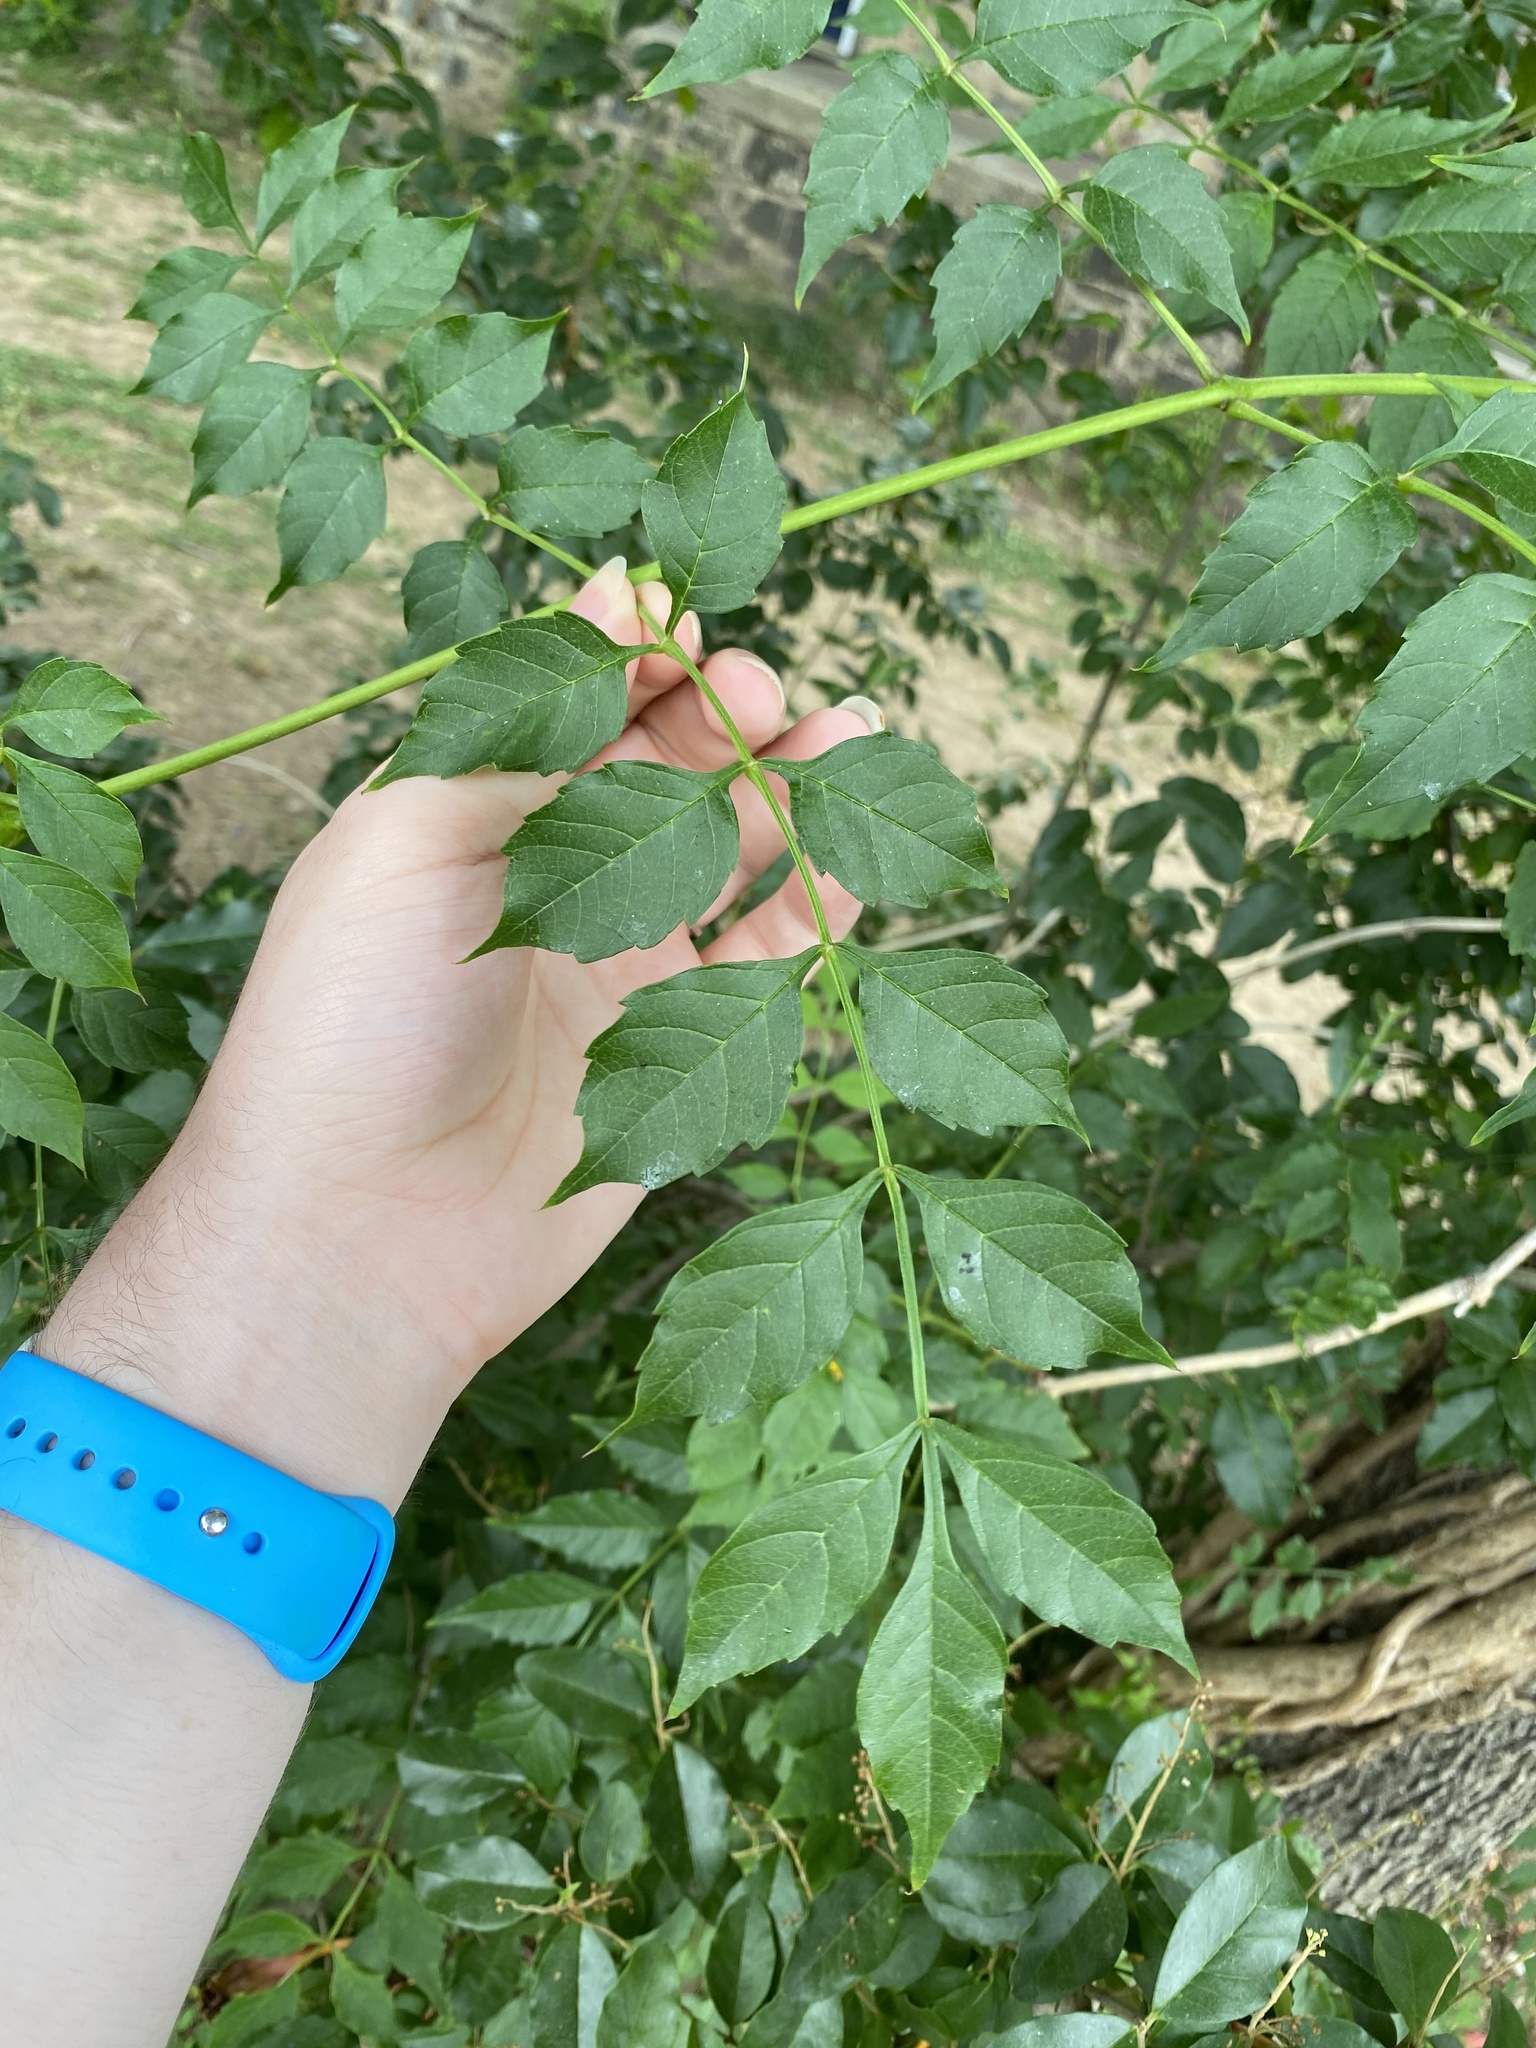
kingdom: Plantae
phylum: Tracheophyta
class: Magnoliopsida
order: Lamiales
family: Bignoniaceae
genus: Campsis
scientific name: Campsis radicans
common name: Trumpet-creeper
